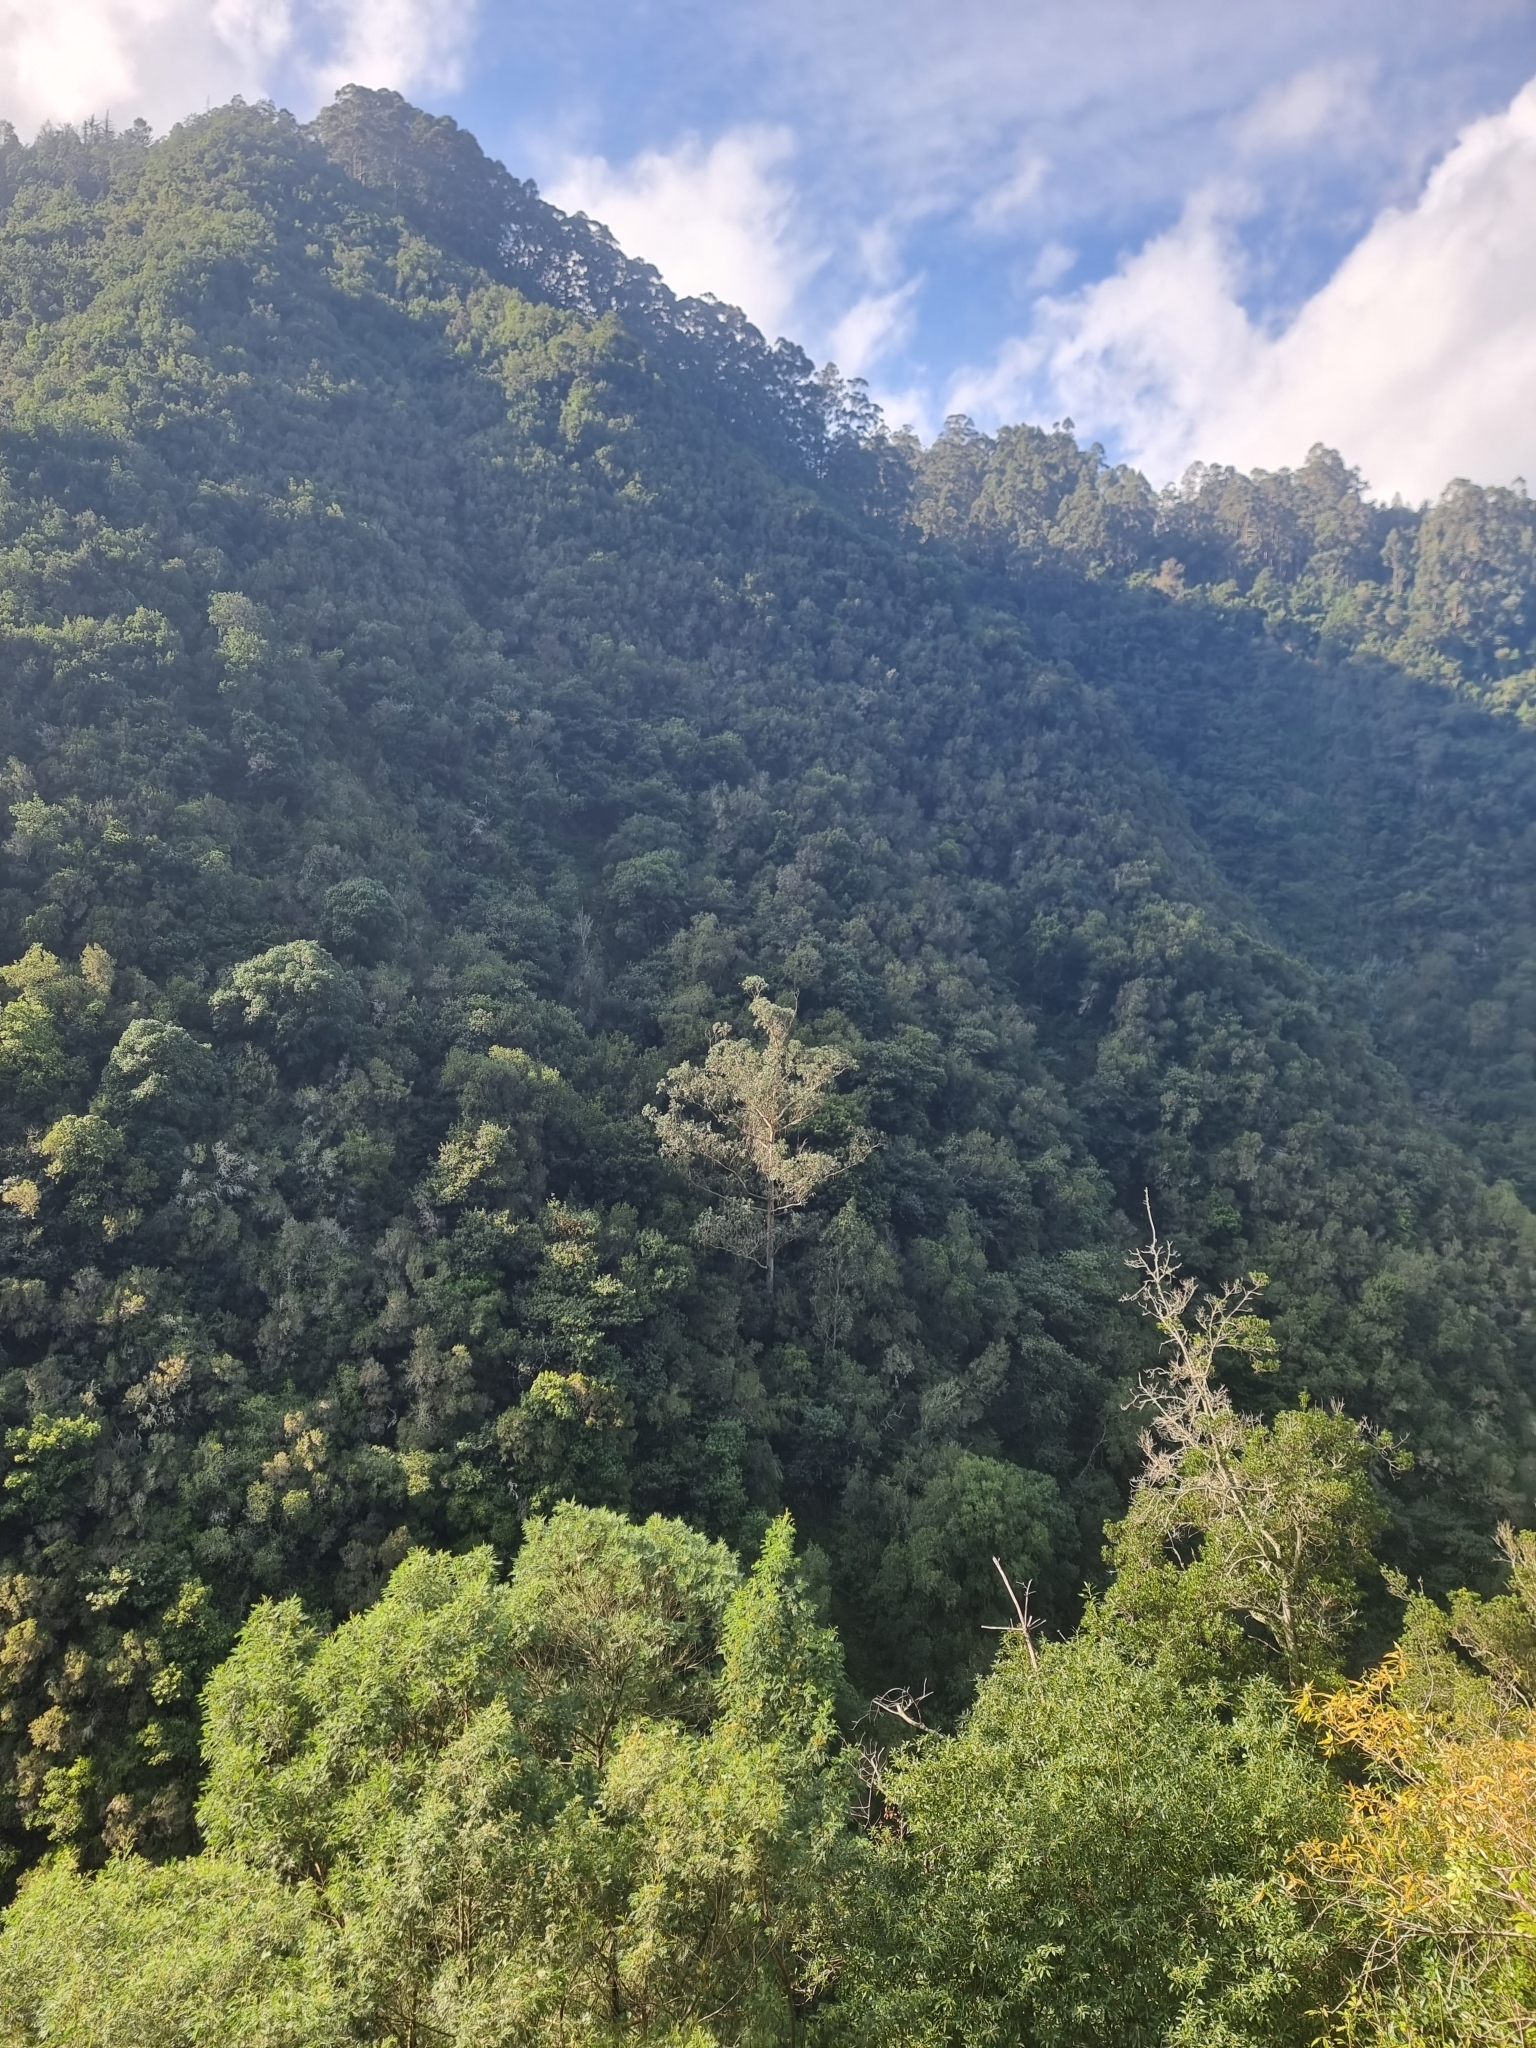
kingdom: Plantae
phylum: Tracheophyta
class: Magnoliopsida
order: Myrtales
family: Myrtaceae
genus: Eucalyptus
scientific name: Eucalyptus globulus
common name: Southern blue-gum
